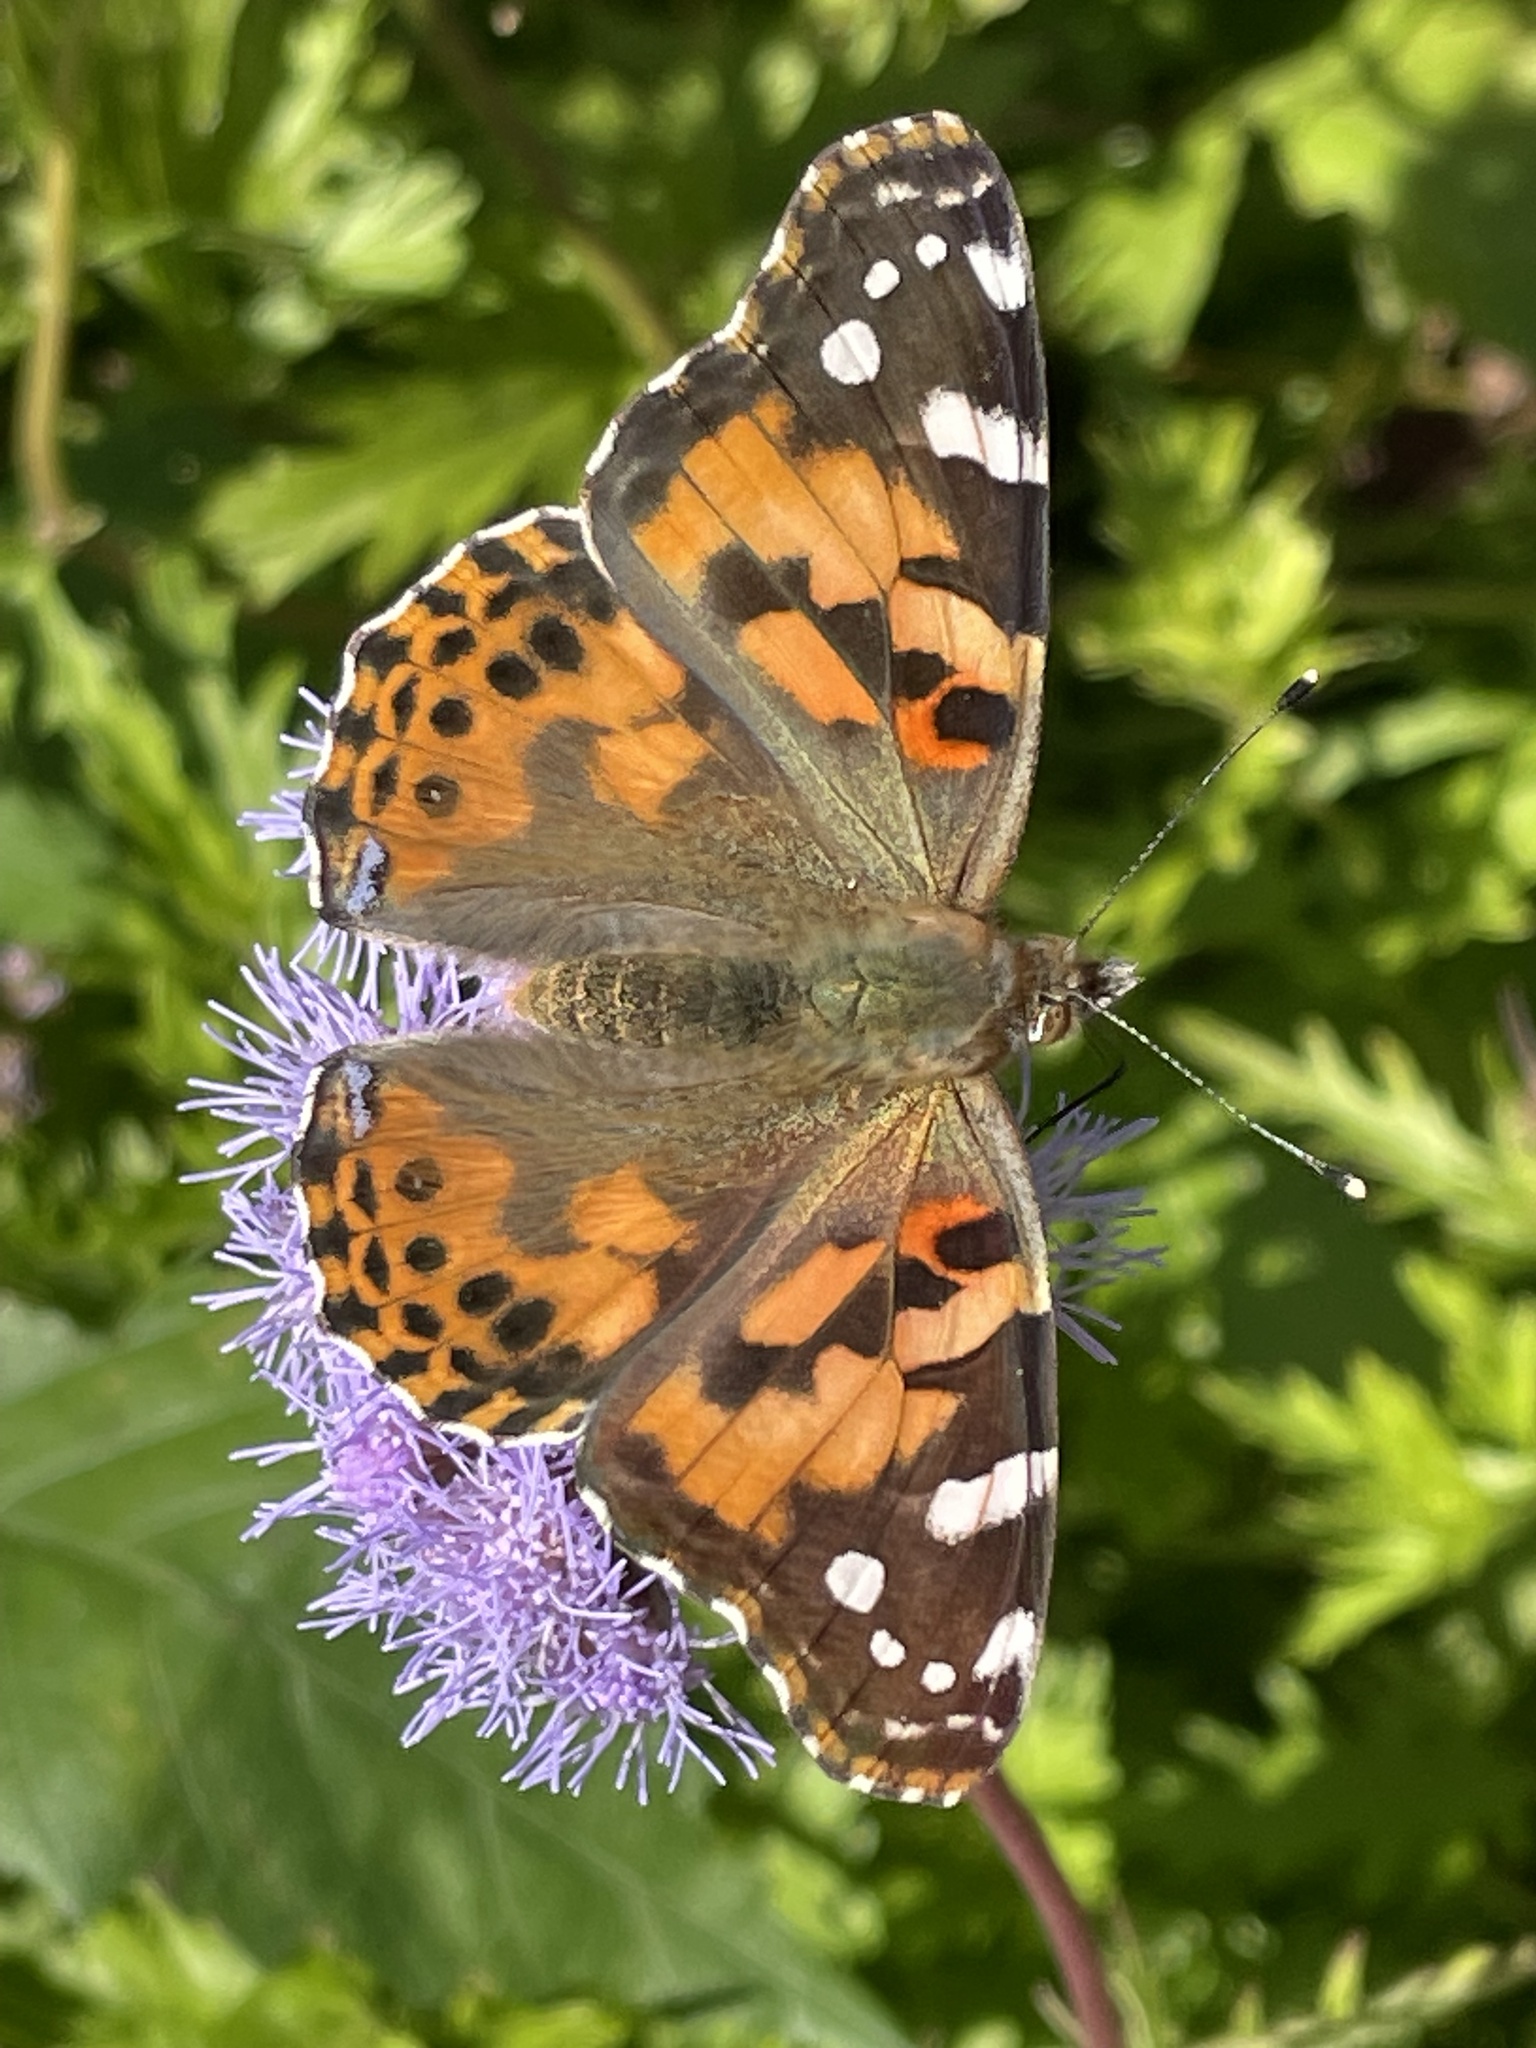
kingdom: Animalia
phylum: Arthropoda
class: Insecta
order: Lepidoptera
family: Nymphalidae
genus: Vanessa
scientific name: Vanessa cardui
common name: Painted lady
